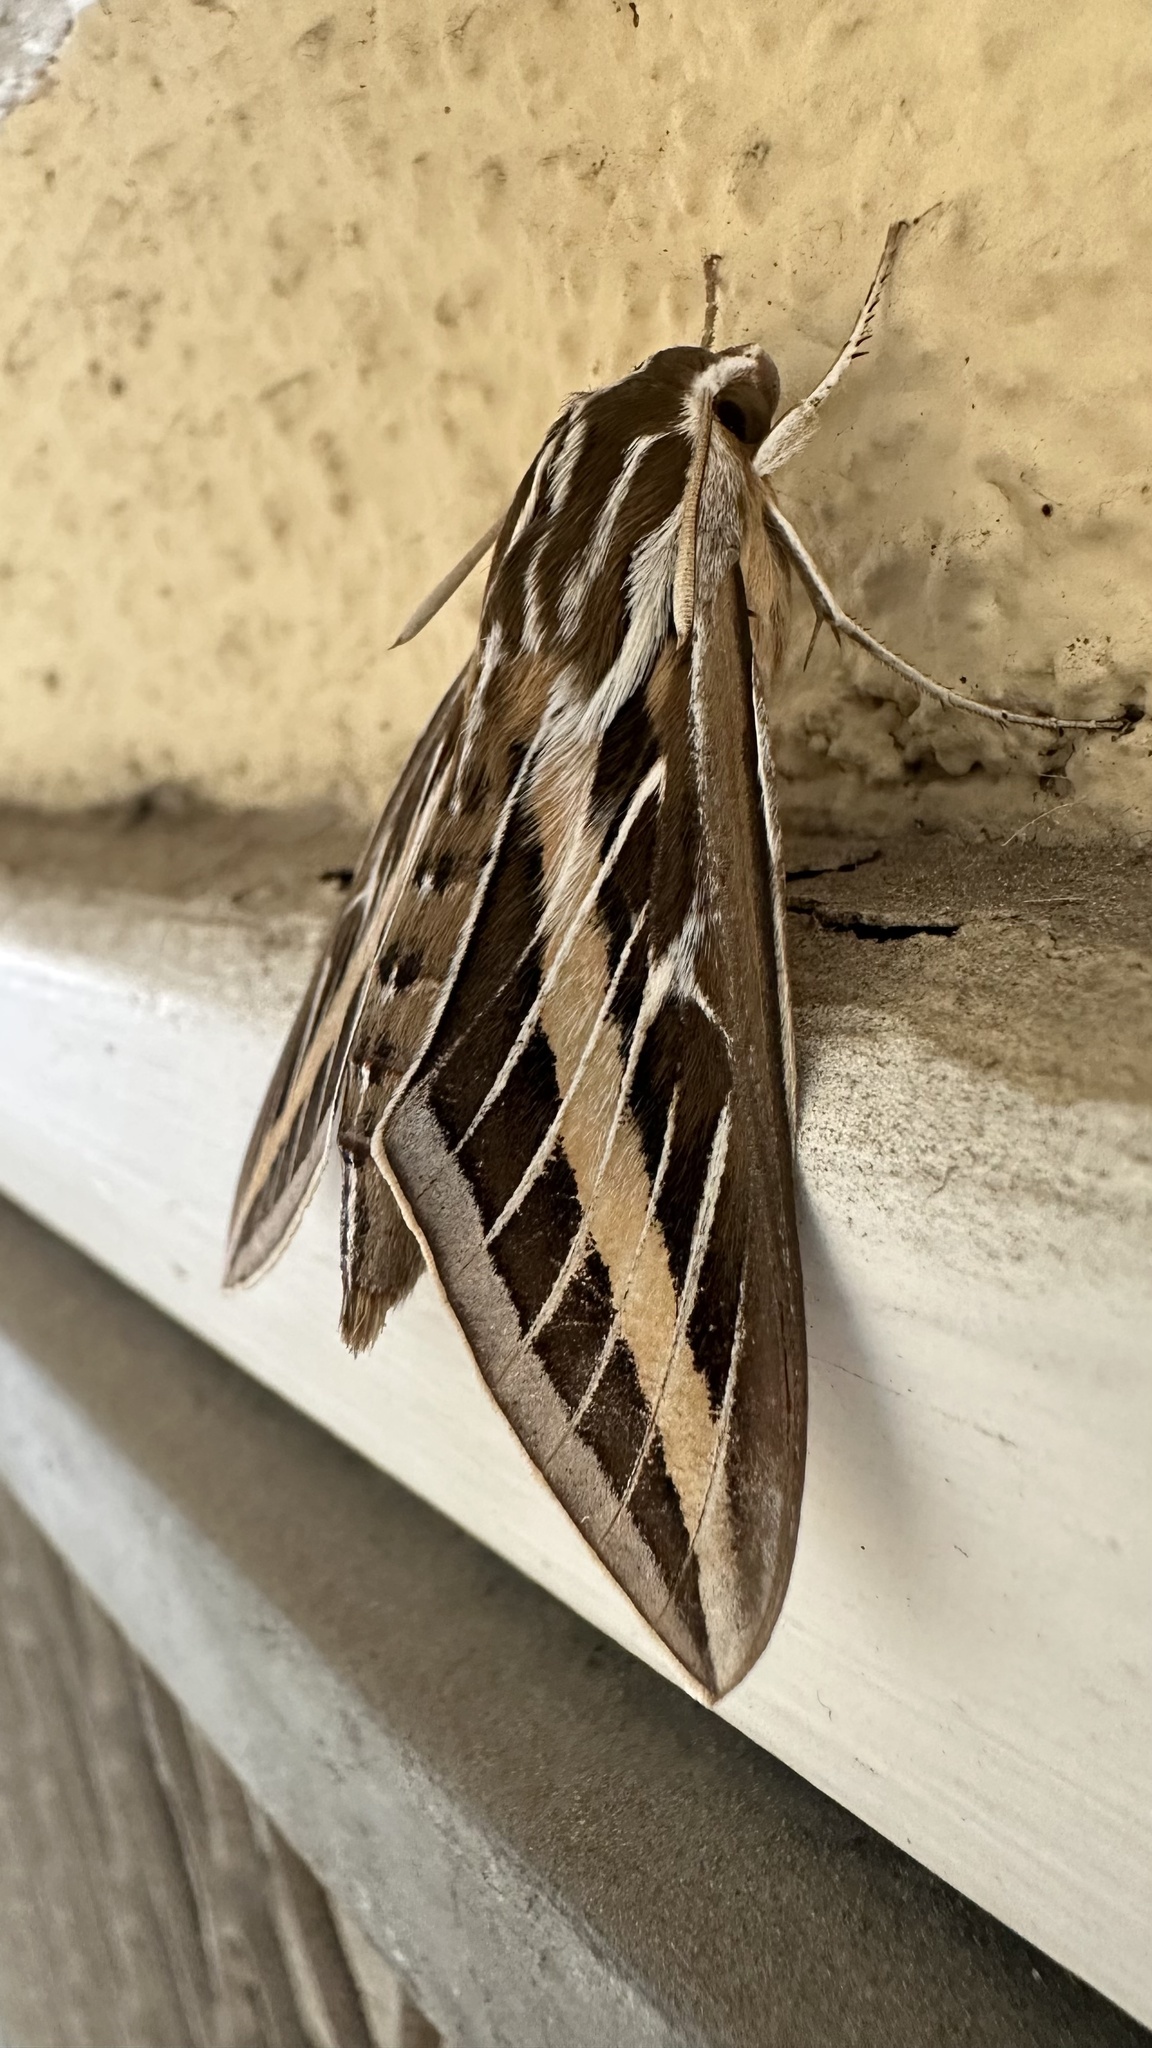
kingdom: Animalia
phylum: Arthropoda
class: Insecta
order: Lepidoptera
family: Sphingidae
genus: Hyles
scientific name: Hyles lineata
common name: White-lined sphinx
